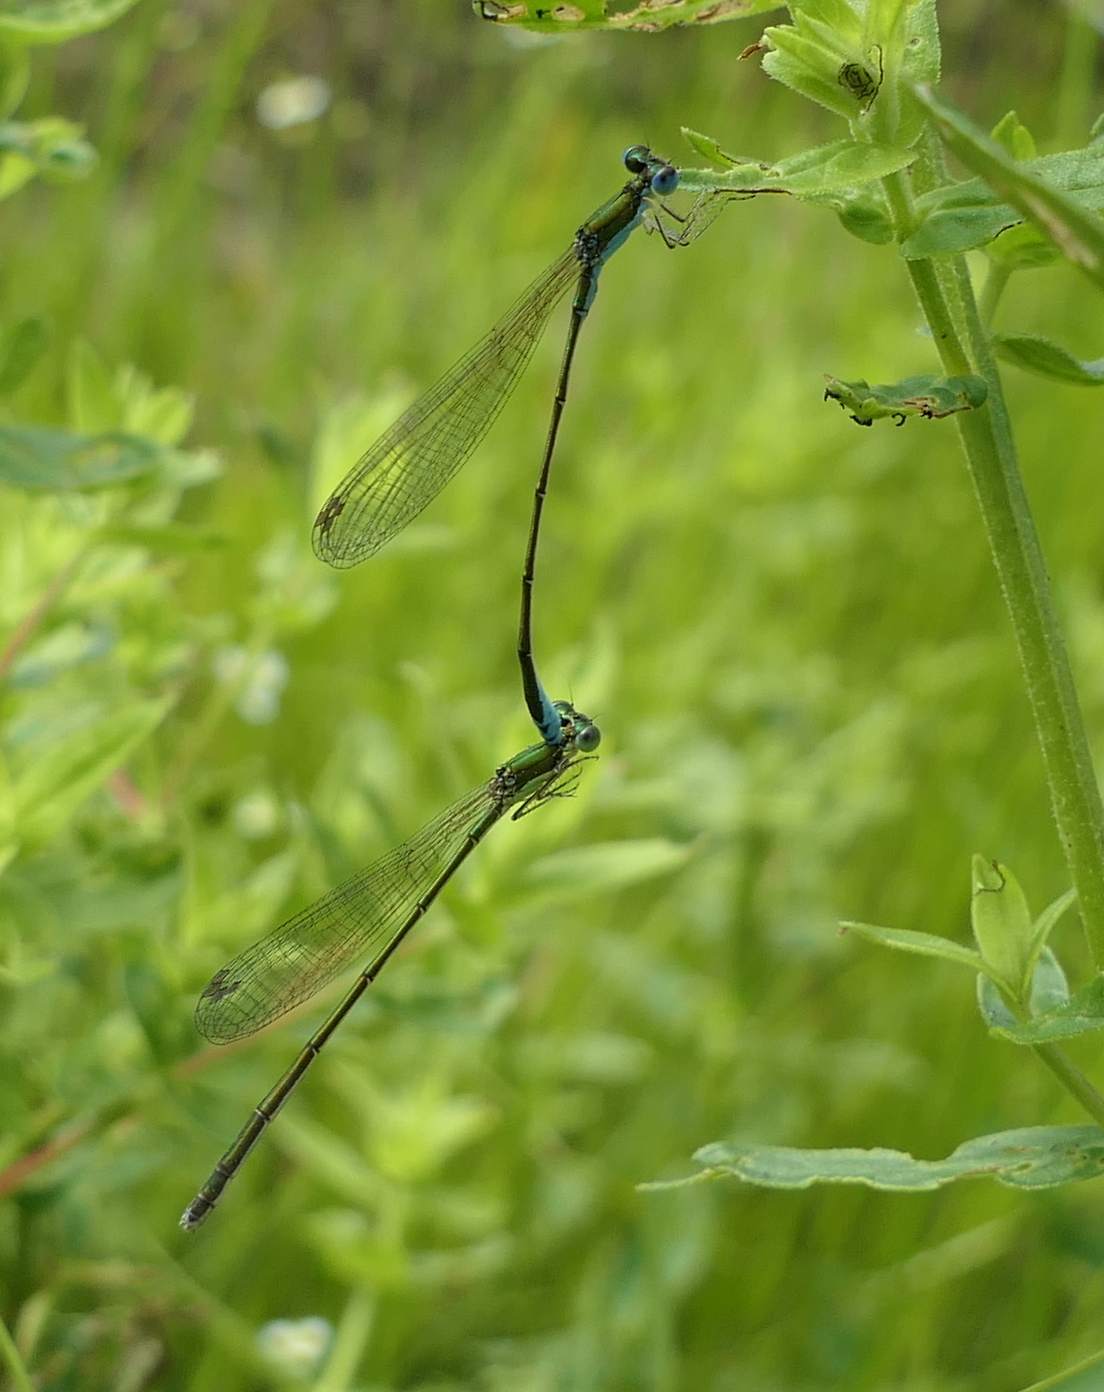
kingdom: Animalia
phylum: Arthropoda
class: Insecta
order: Odonata
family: Coenagrionidae
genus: Nehalennia
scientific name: Nehalennia irene
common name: Sedge sprite
